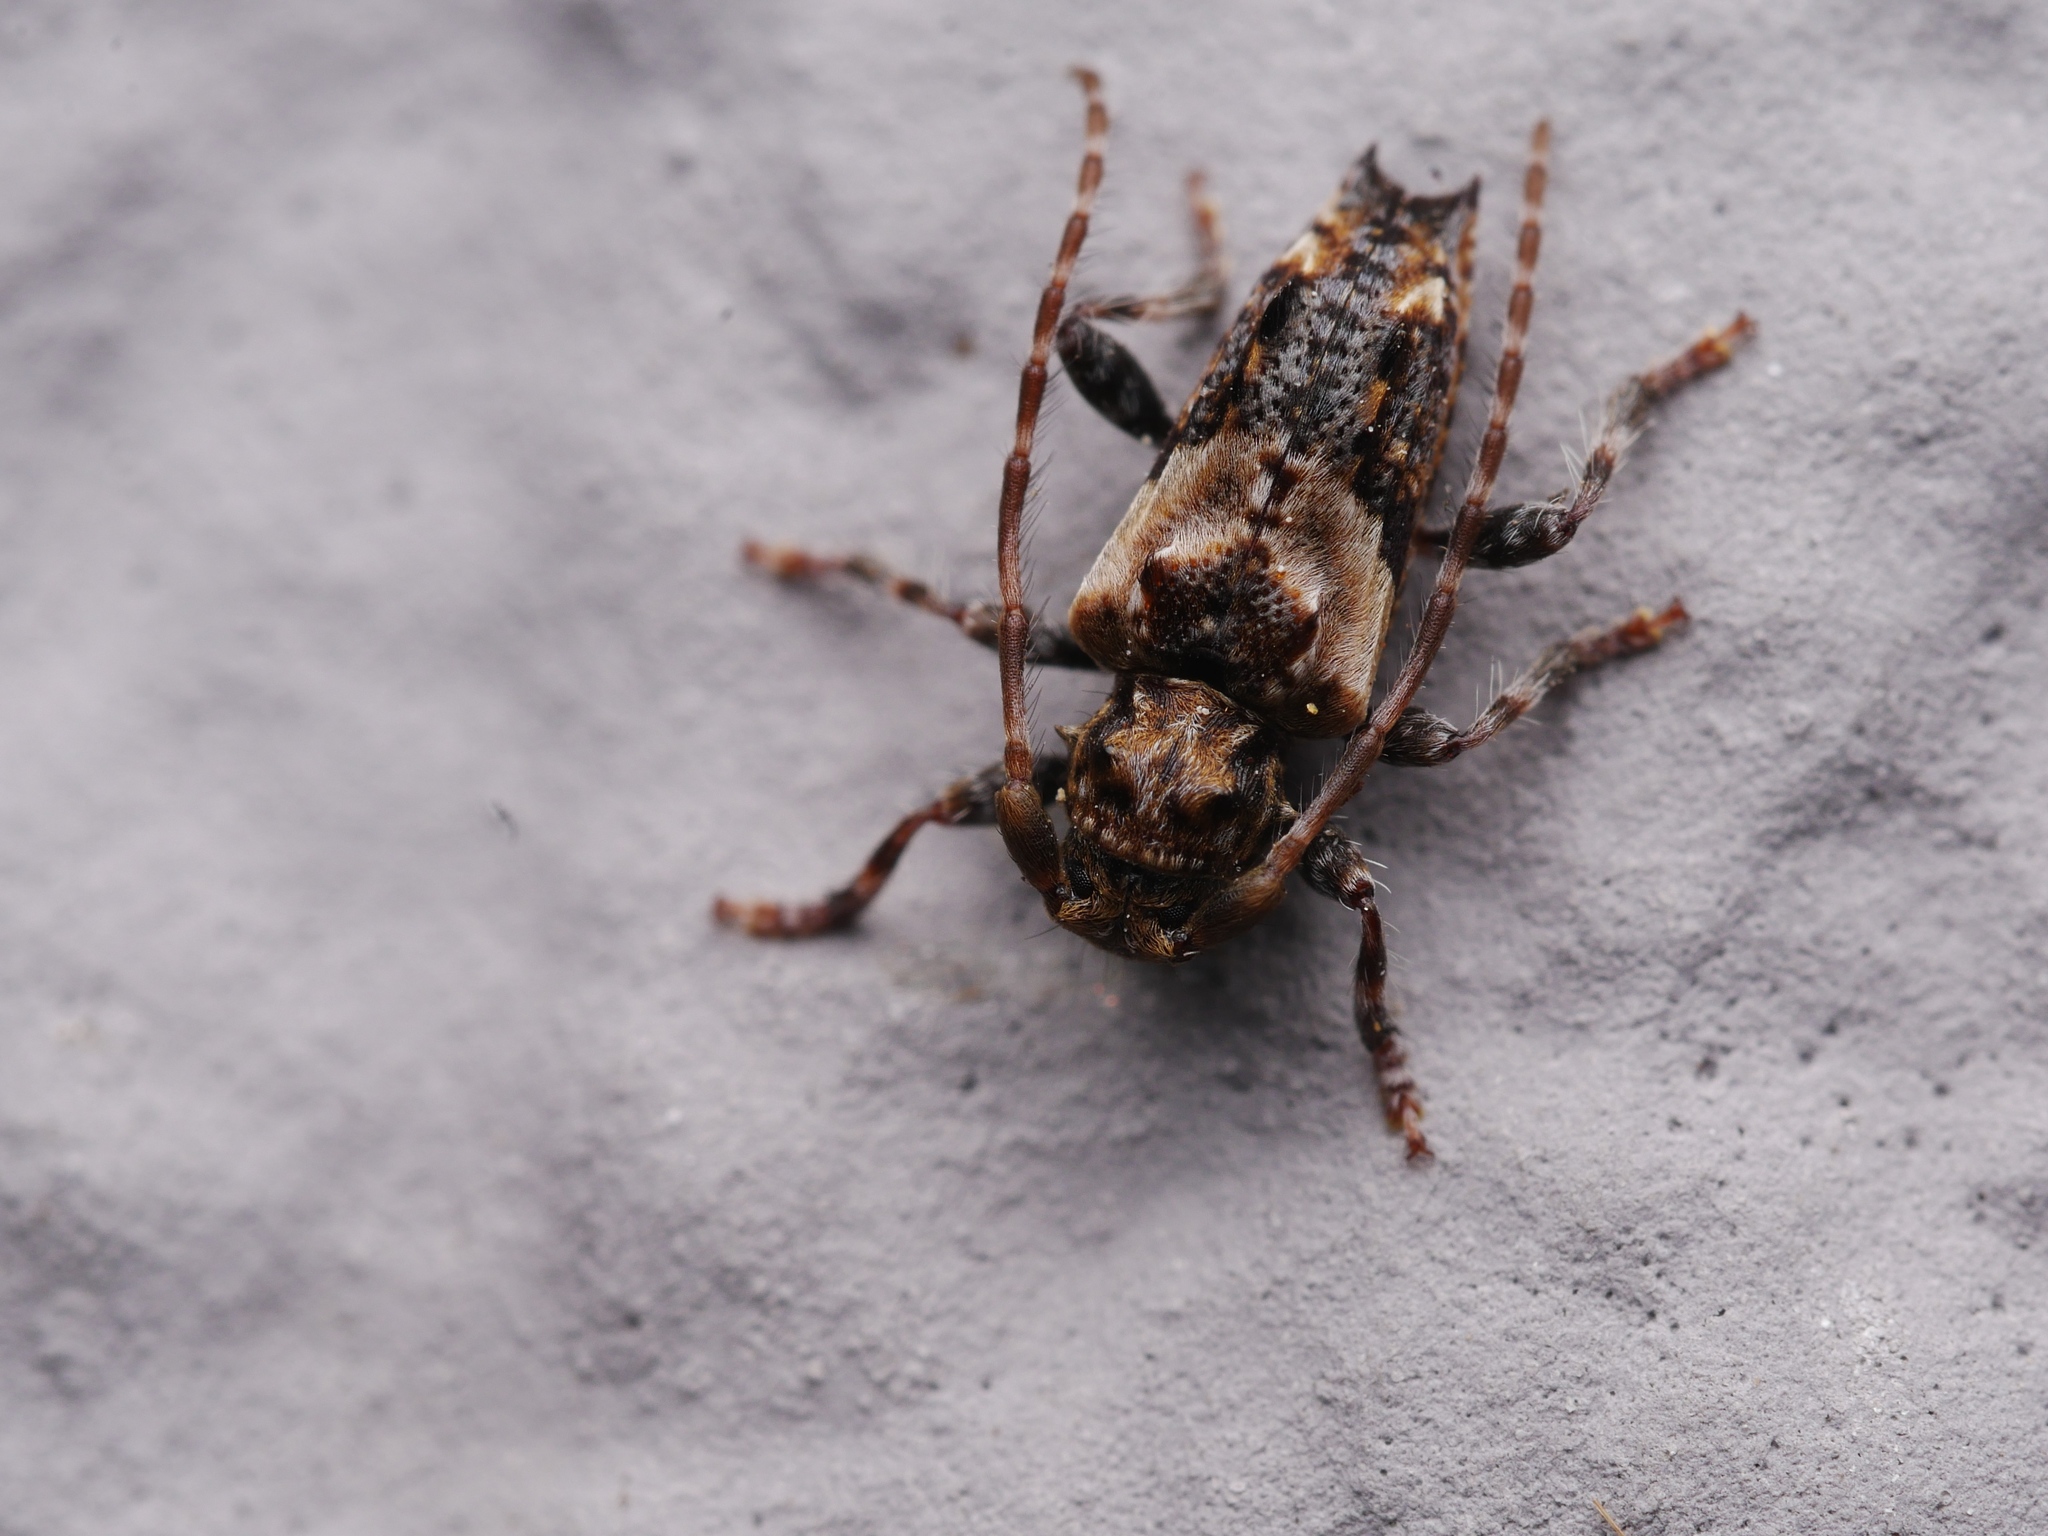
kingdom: Animalia
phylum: Arthropoda
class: Insecta
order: Coleoptera
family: Cerambycidae
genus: Pogonocherus
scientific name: Pogonocherus hispidus
